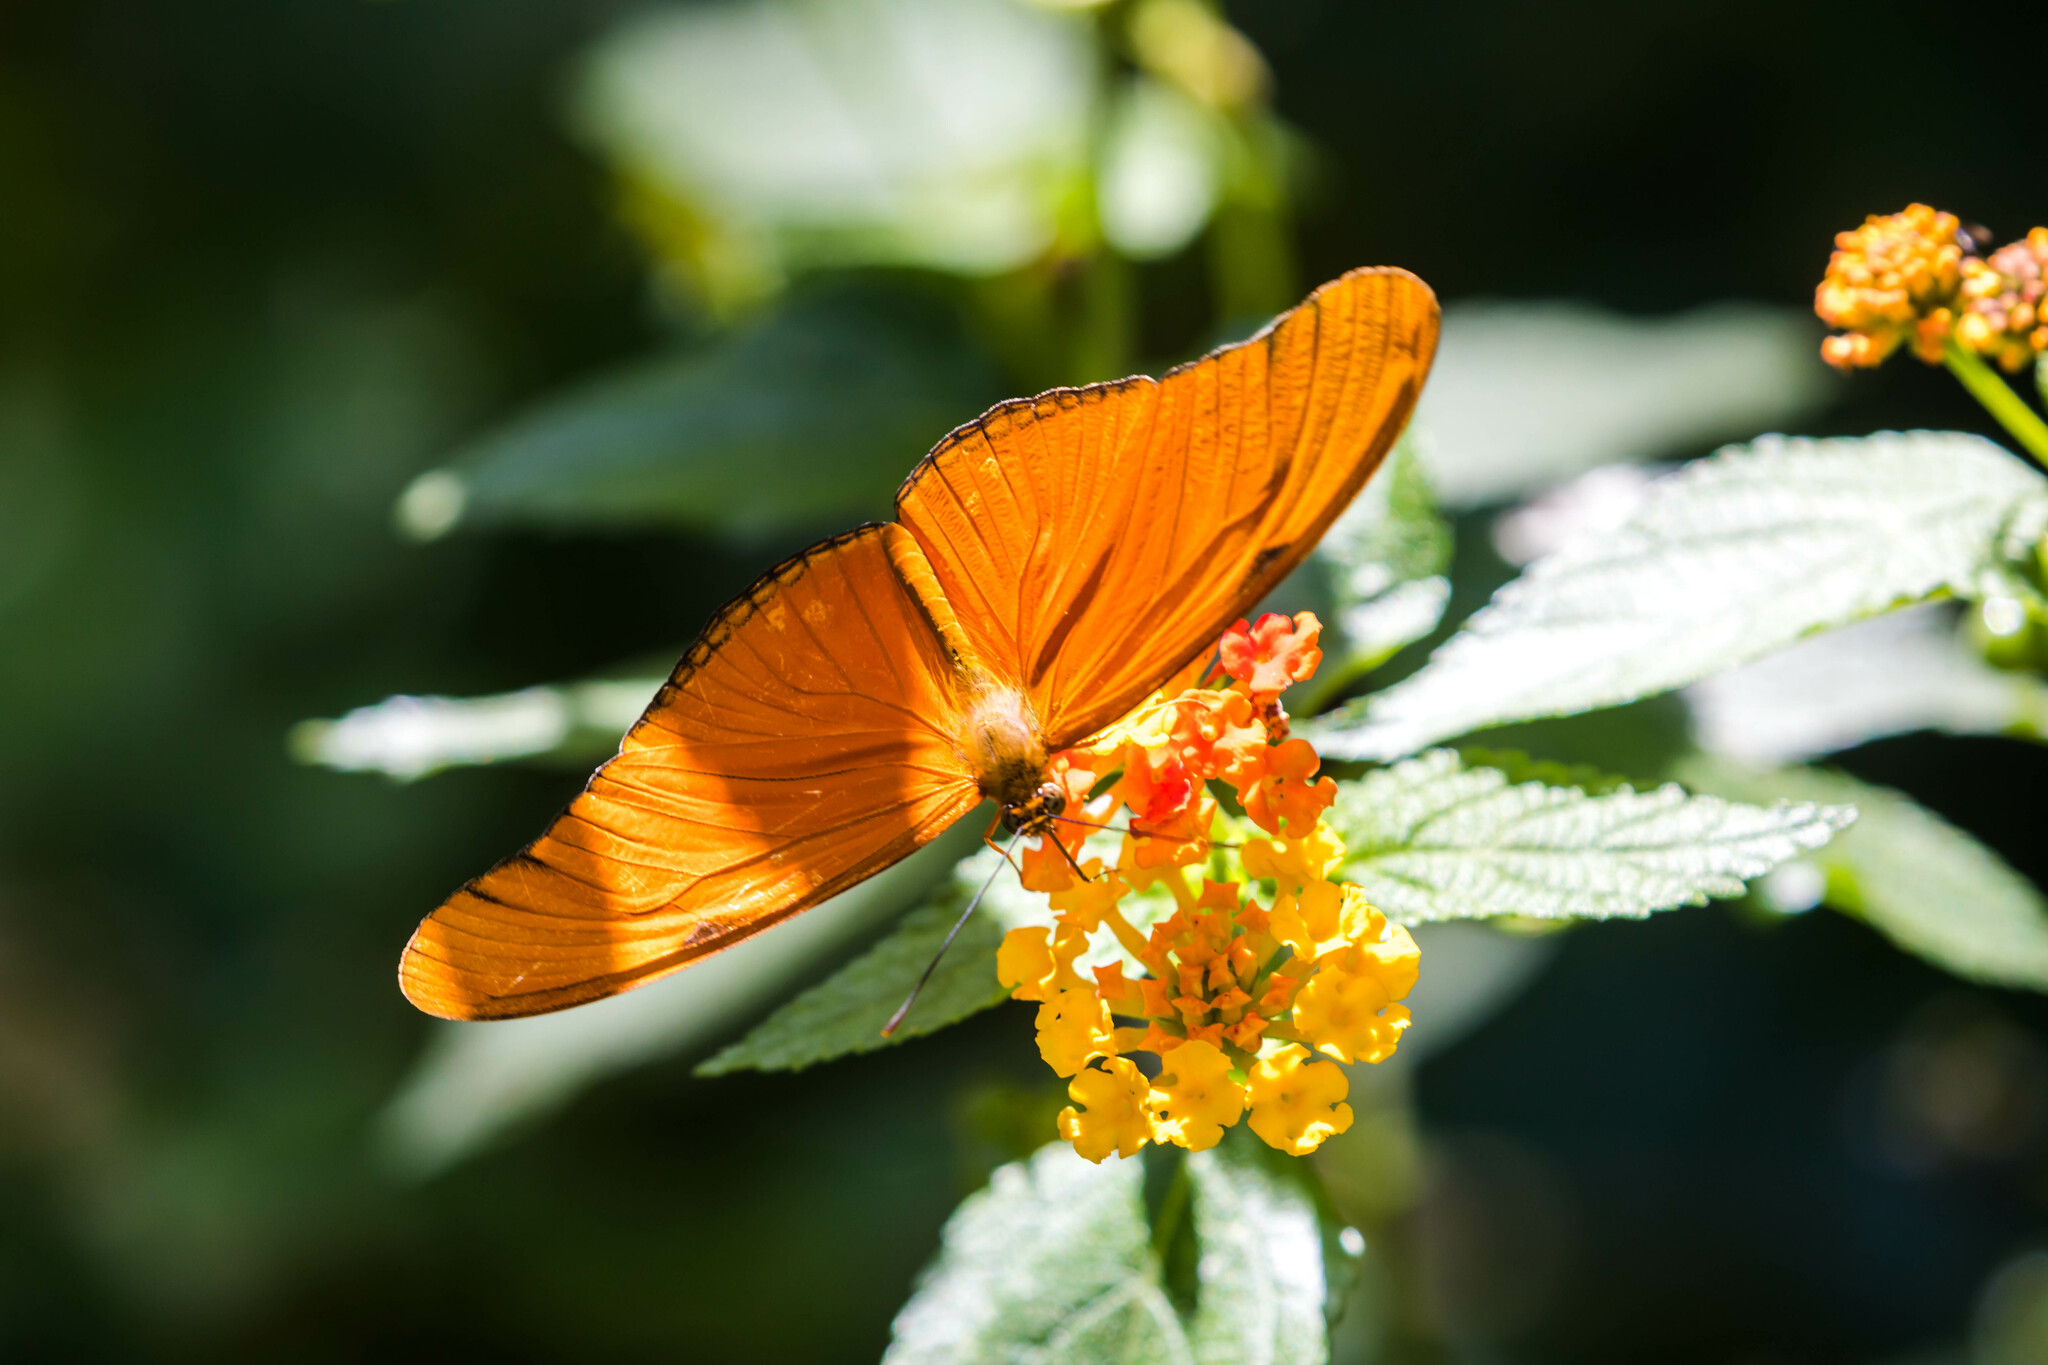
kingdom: Animalia
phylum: Arthropoda
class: Insecta
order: Lepidoptera
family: Nymphalidae
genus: Dryas
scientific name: Dryas iulia
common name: Flambeau
